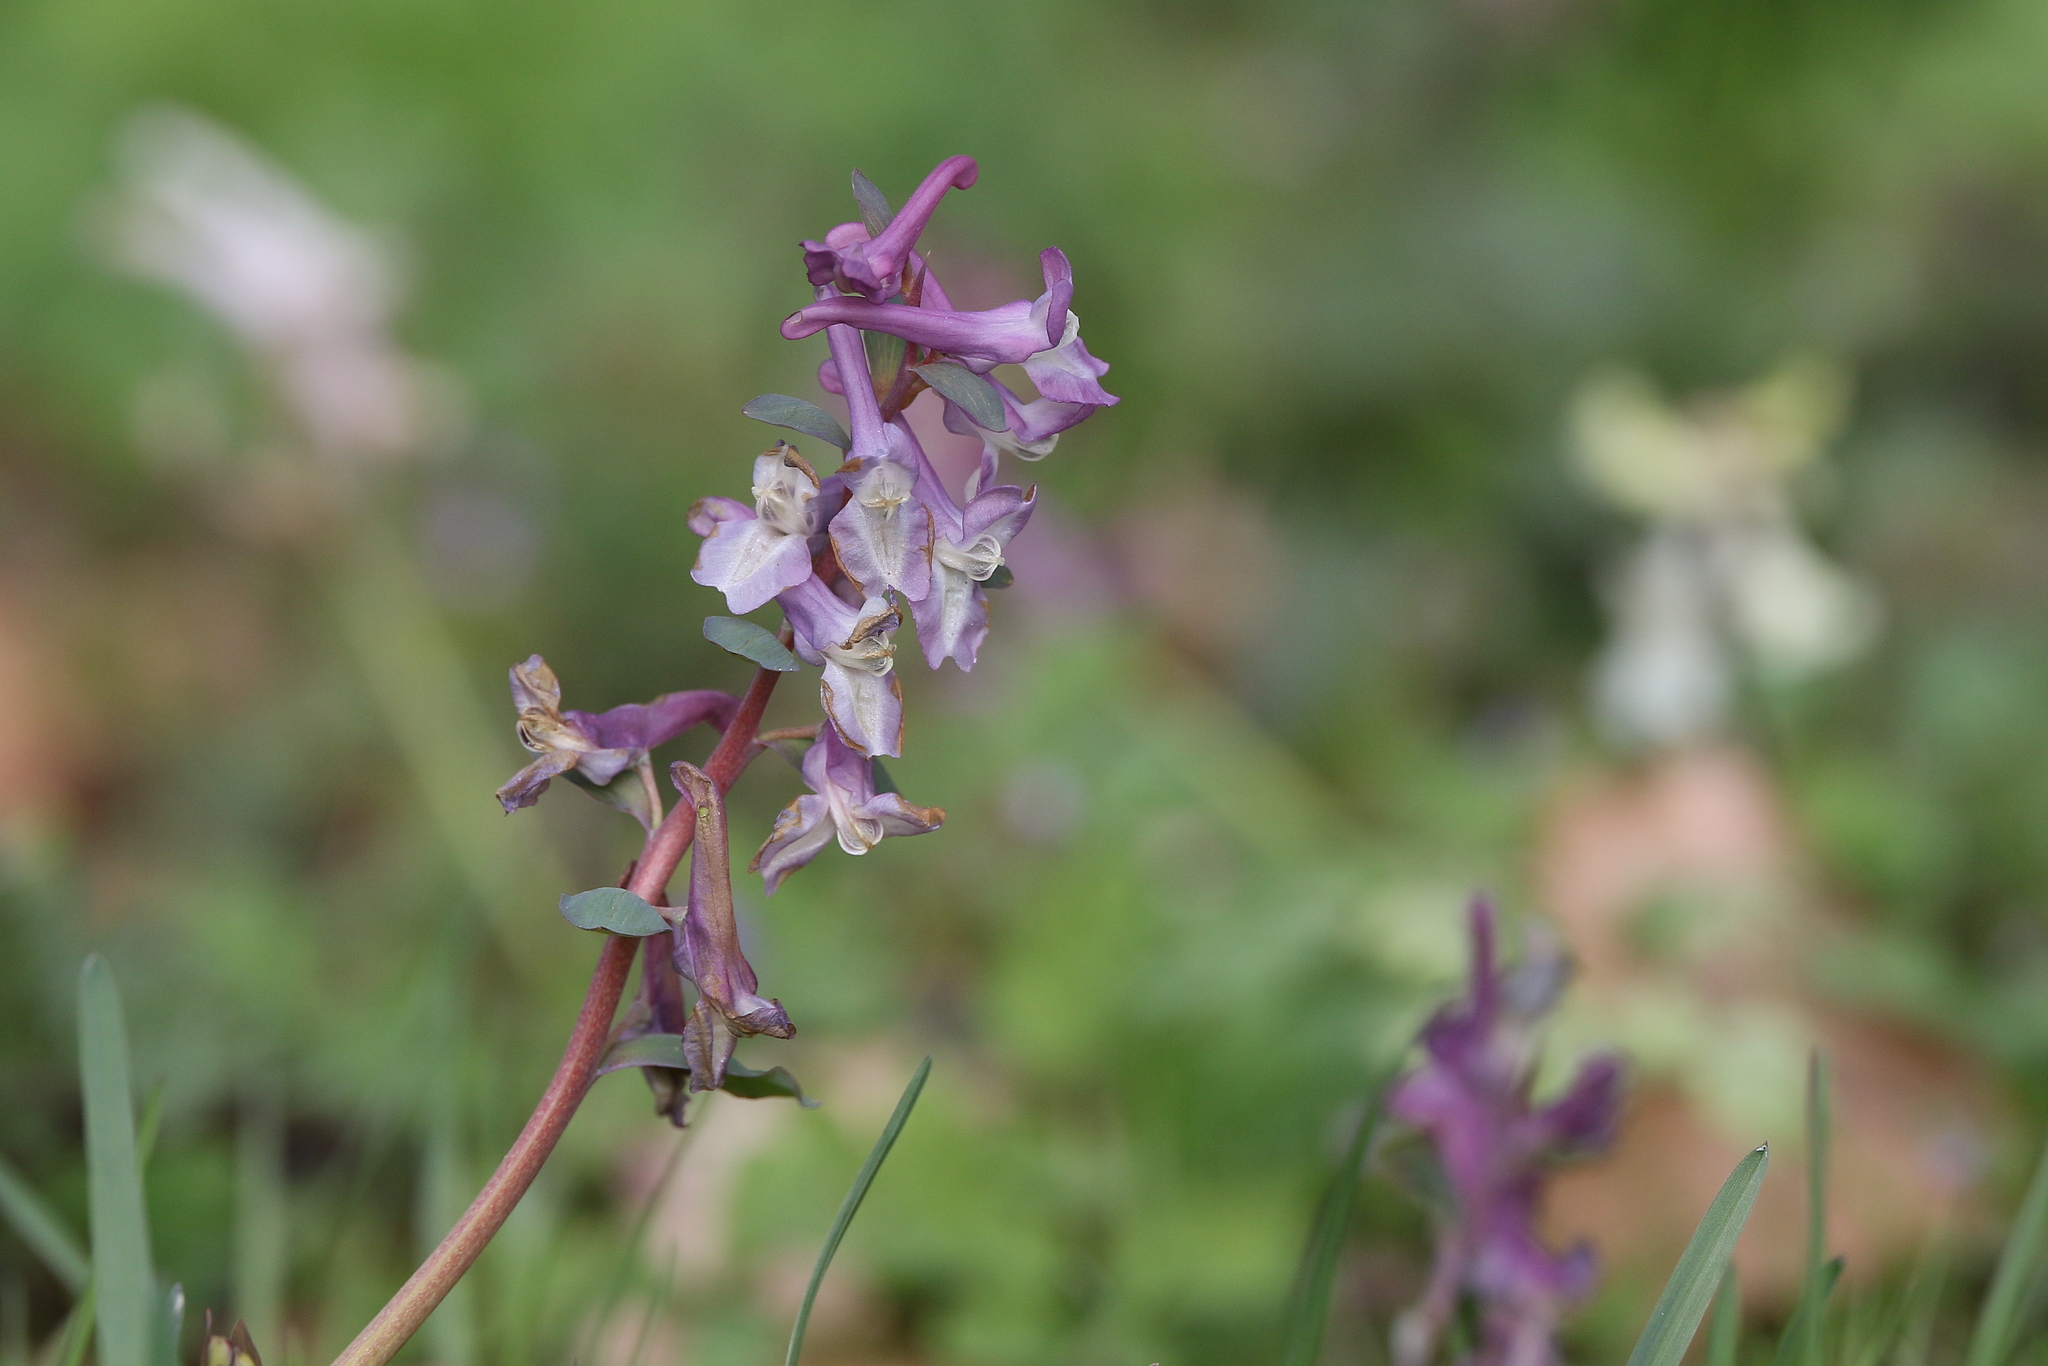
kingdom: Plantae
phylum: Tracheophyta
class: Magnoliopsida
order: Ranunculales
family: Papaveraceae
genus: Corydalis
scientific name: Corydalis cava
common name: Hollowroot
